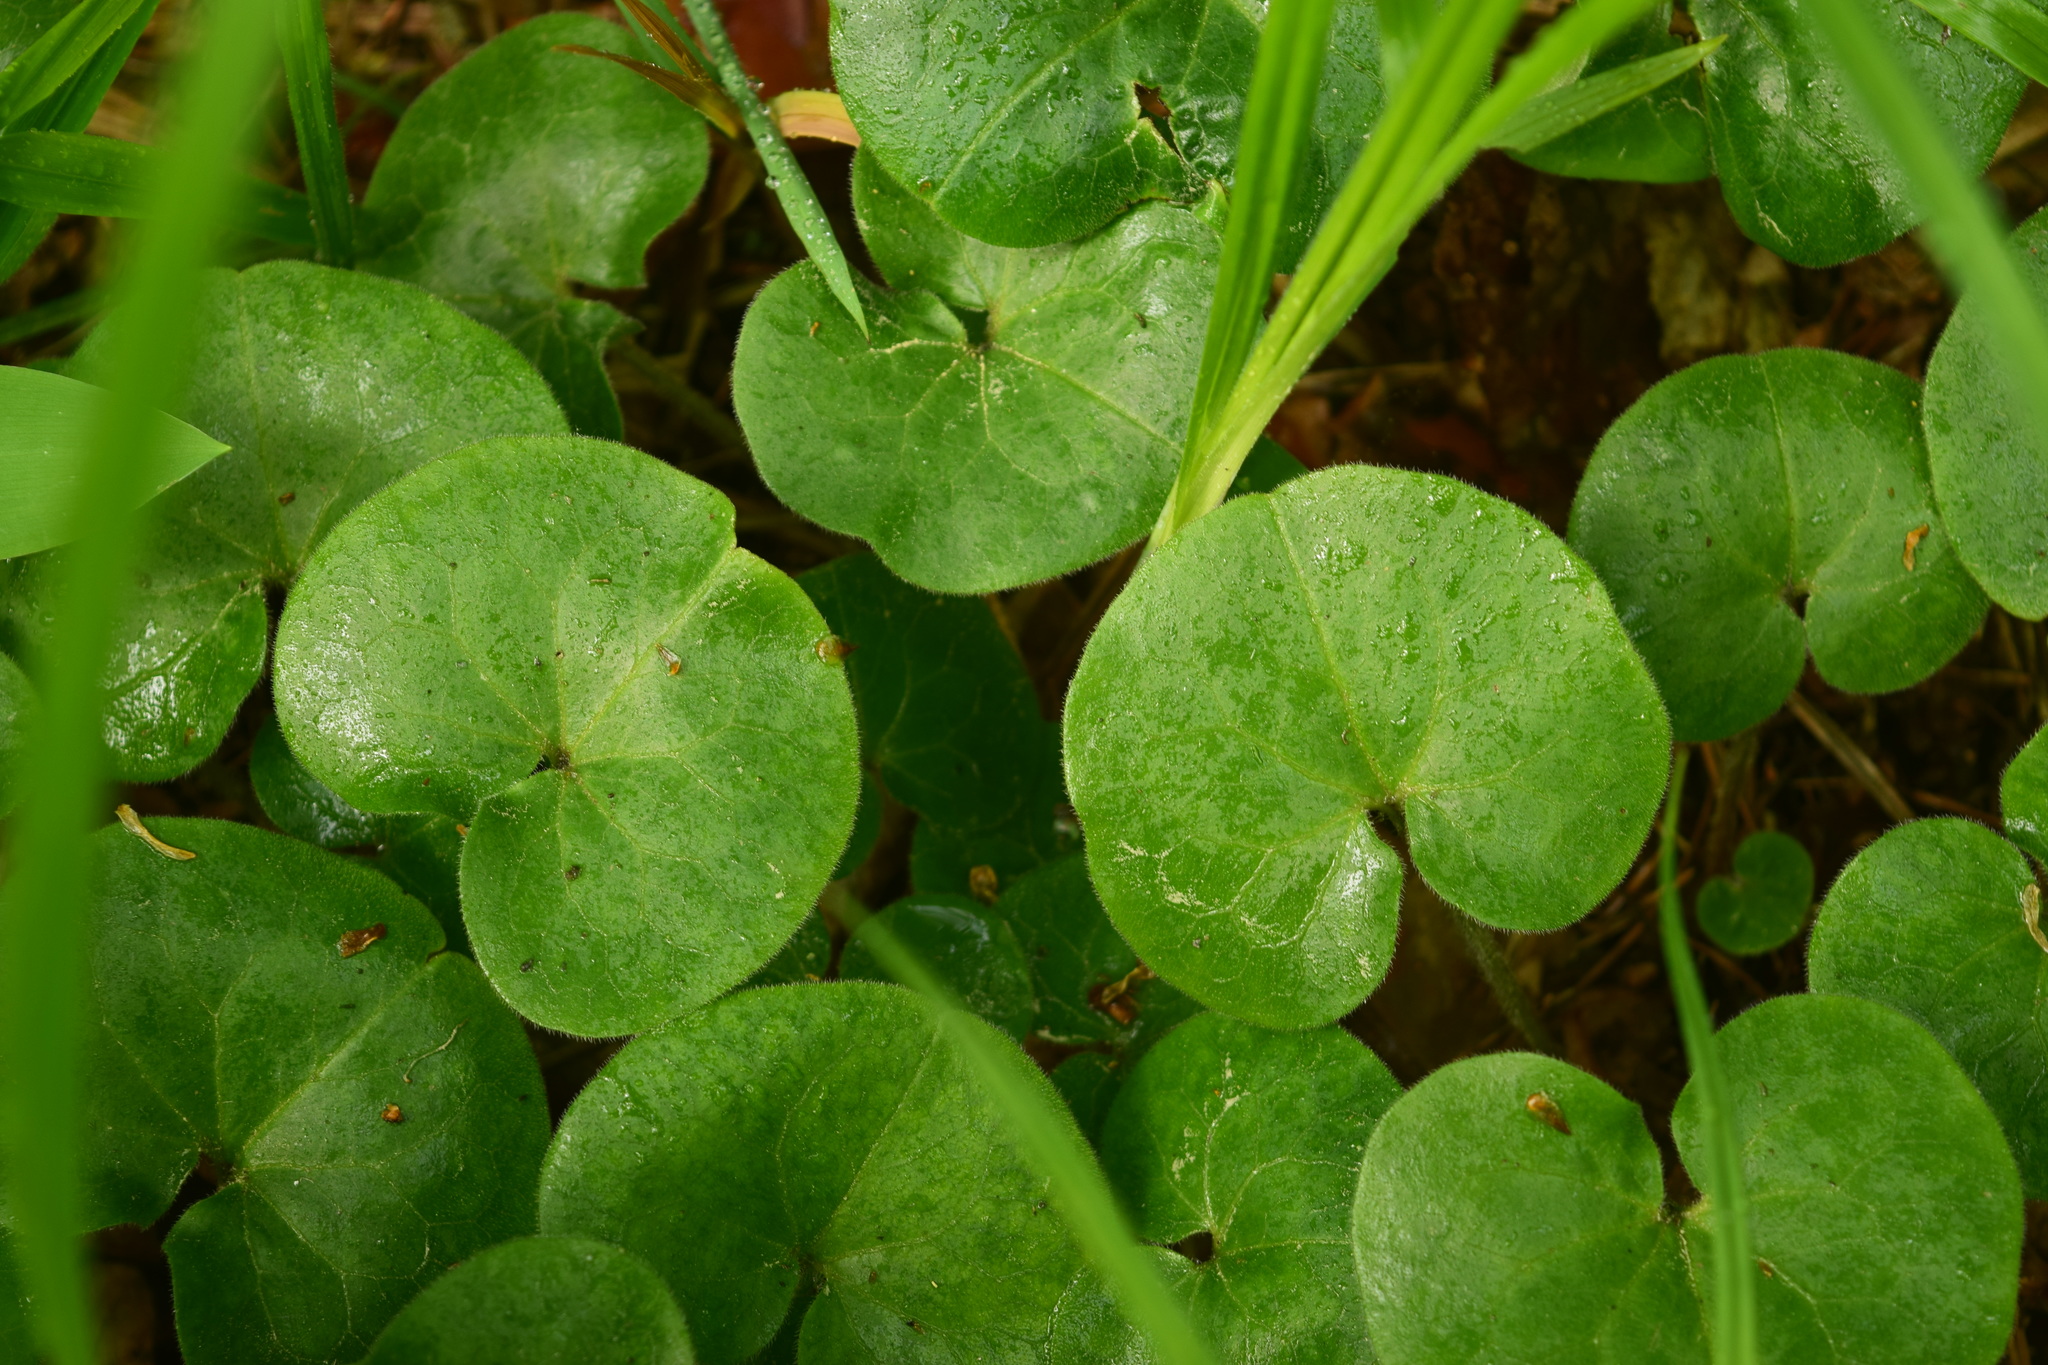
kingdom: Plantae
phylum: Tracheophyta
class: Magnoliopsida
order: Piperales
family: Aristolochiaceae
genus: Asarum
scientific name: Asarum europaeum
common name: Asarabacca
